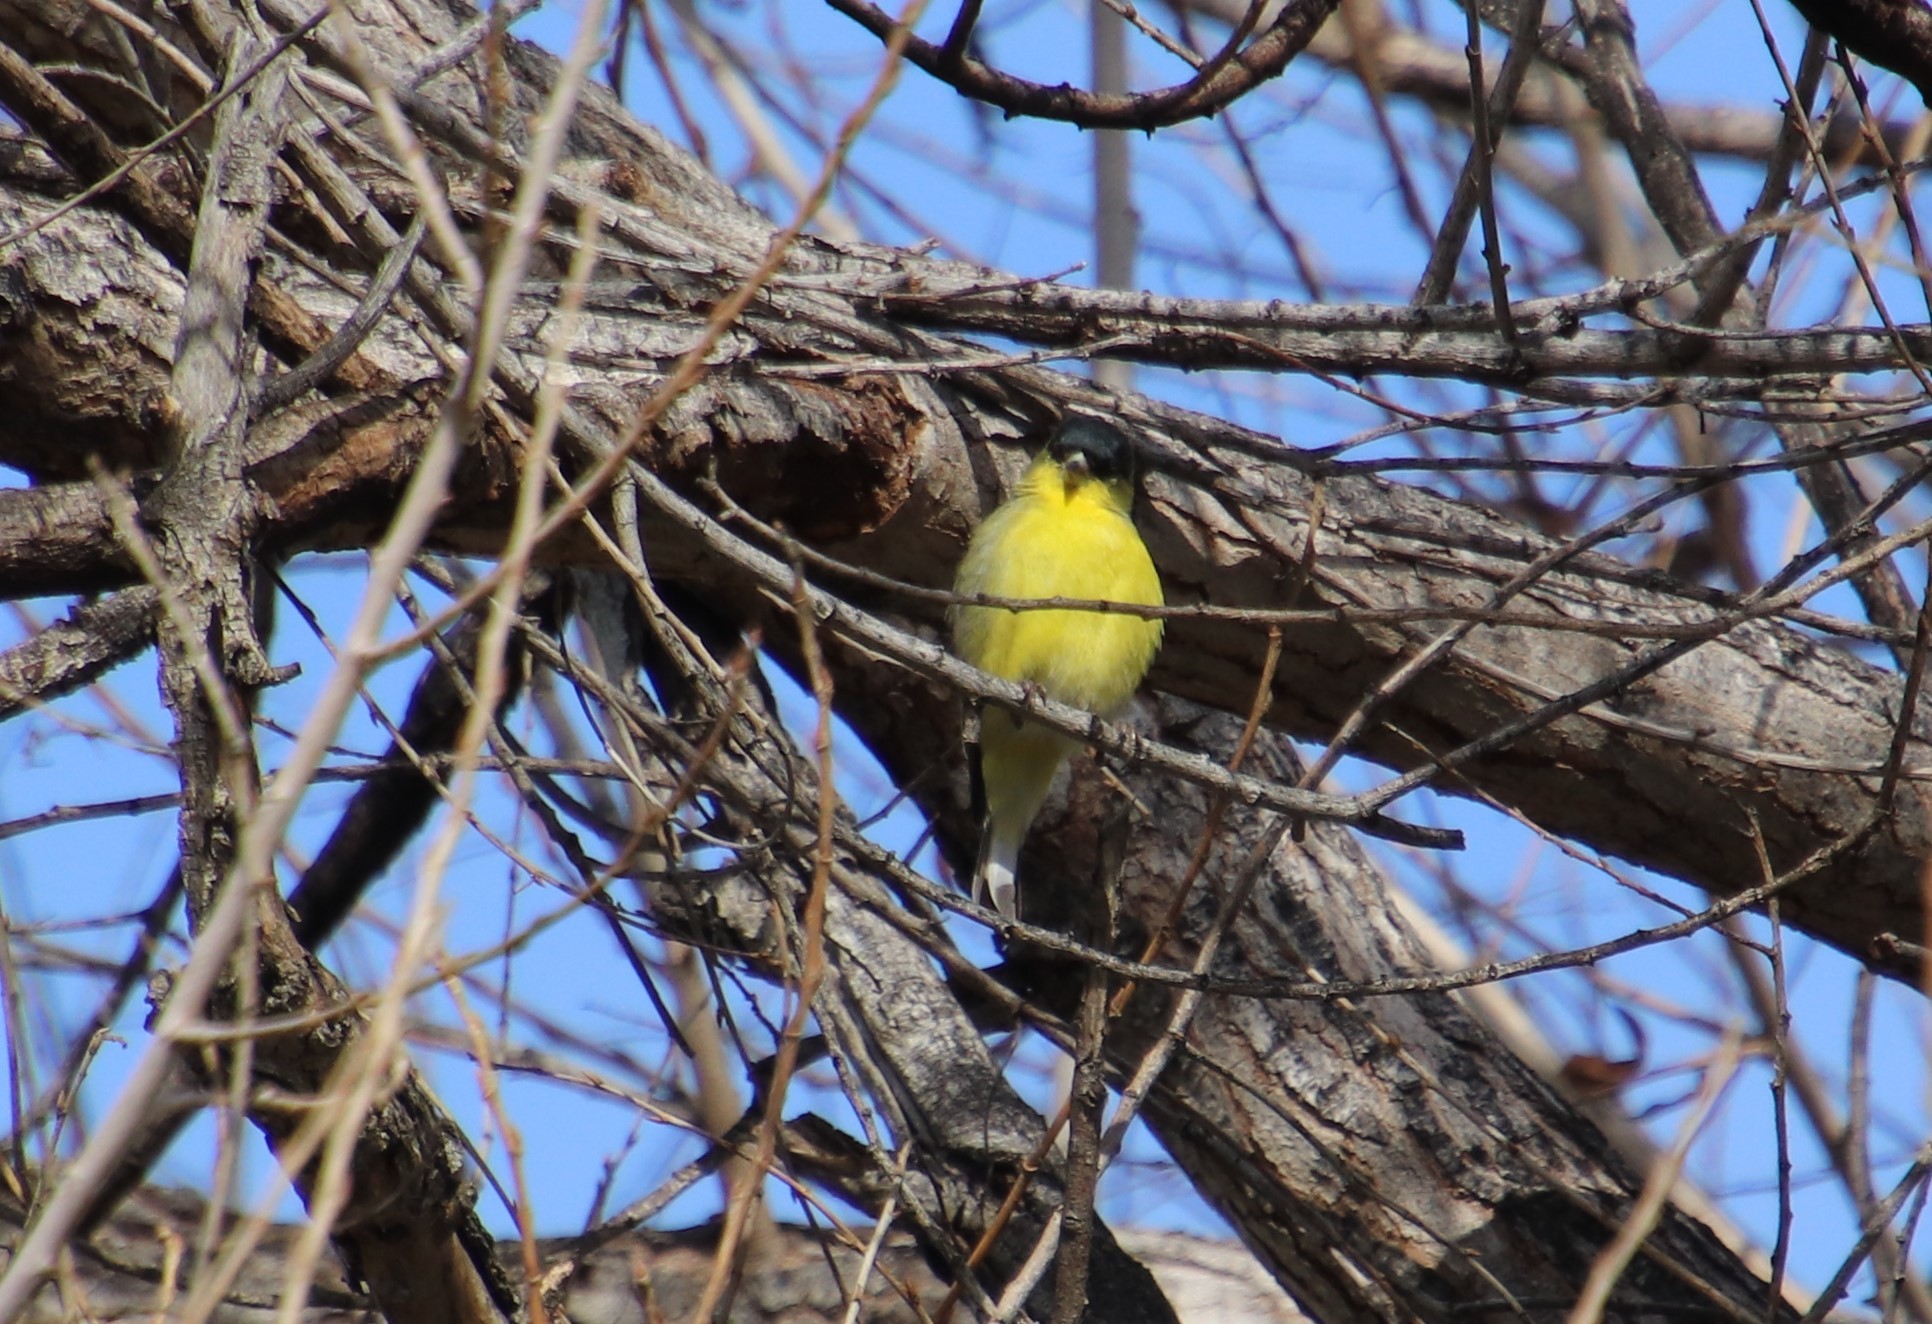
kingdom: Animalia
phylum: Chordata
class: Aves
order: Passeriformes
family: Fringillidae
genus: Spinus
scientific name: Spinus psaltria
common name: Lesser goldfinch
